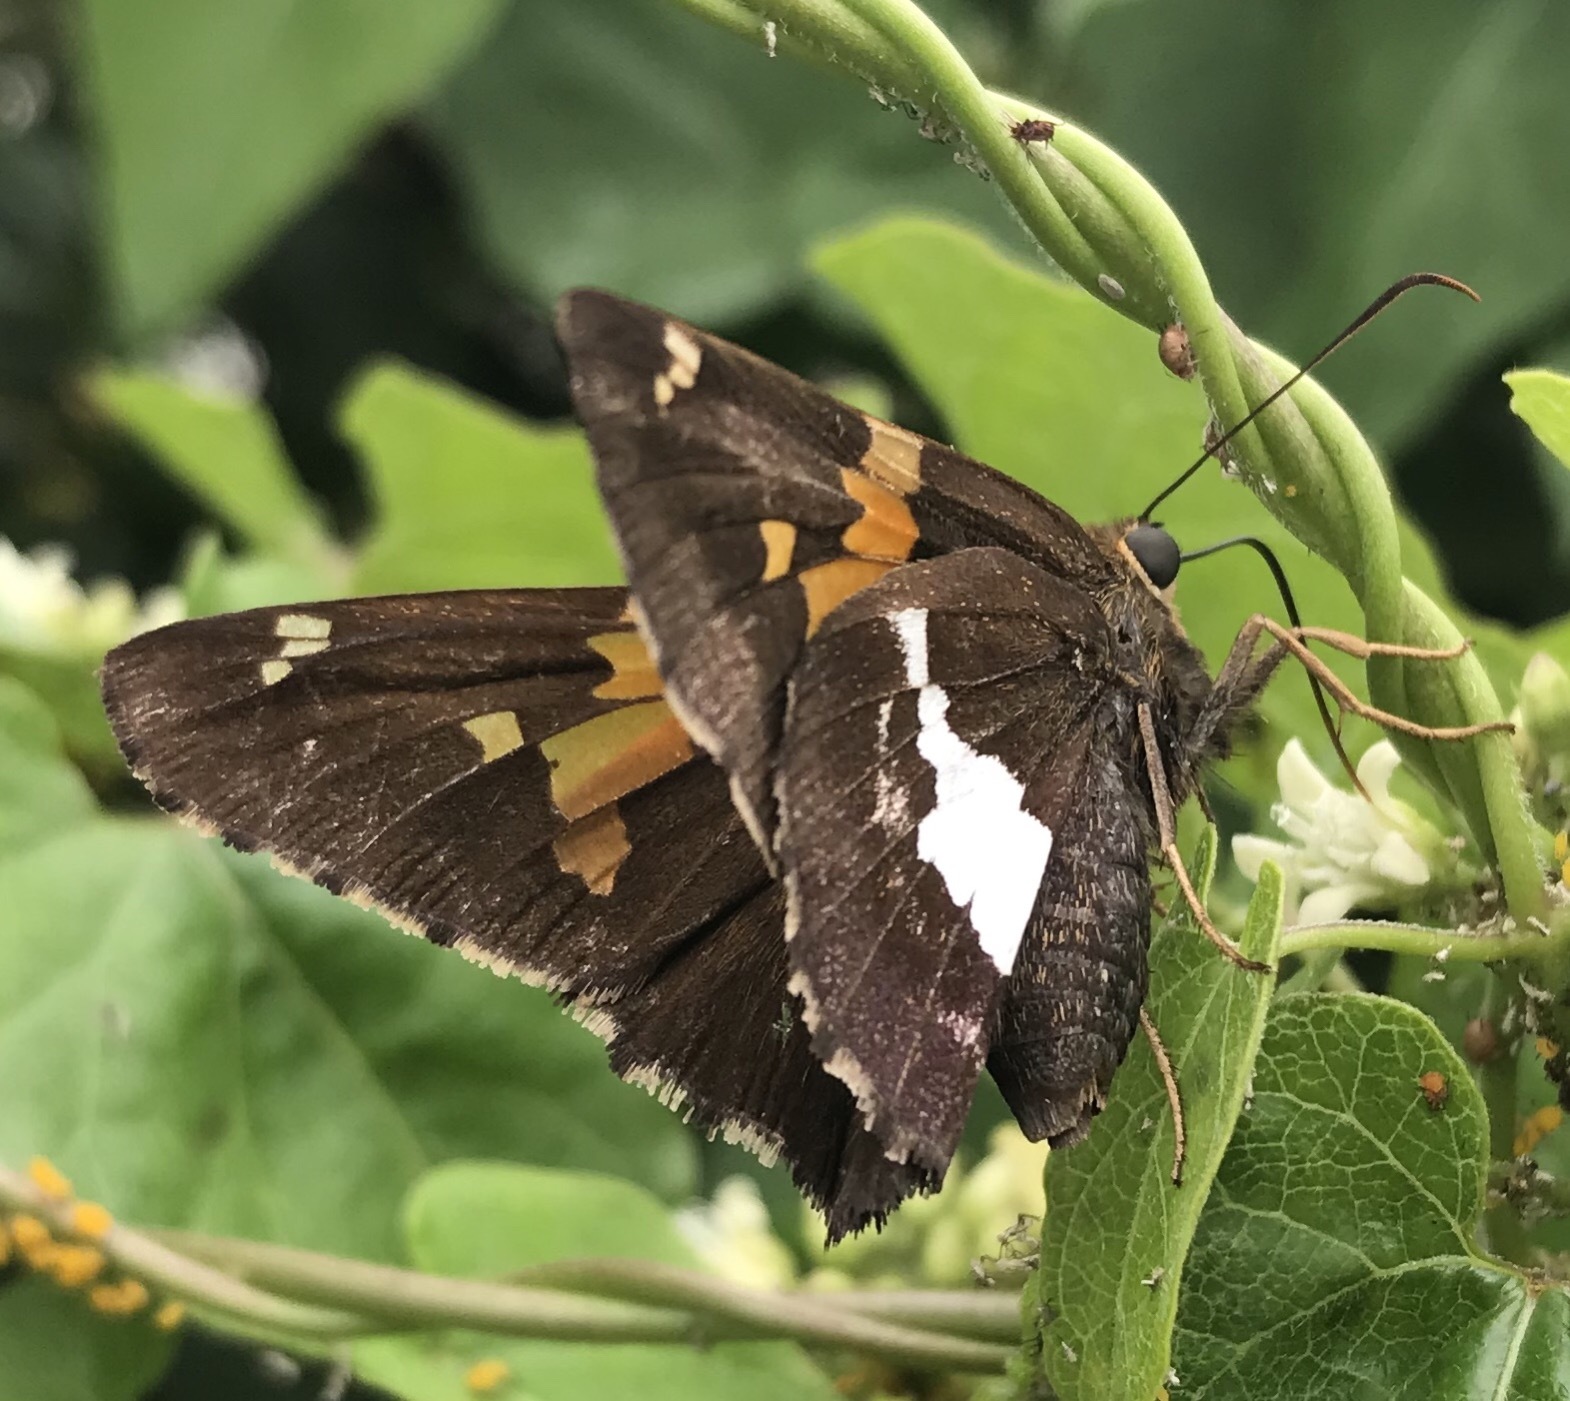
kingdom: Animalia
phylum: Arthropoda
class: Insecta
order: Lepidoptera
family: Hesperiidae
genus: Epargyreus
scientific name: Epargyreus clarus
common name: Silver-spotted skipper
